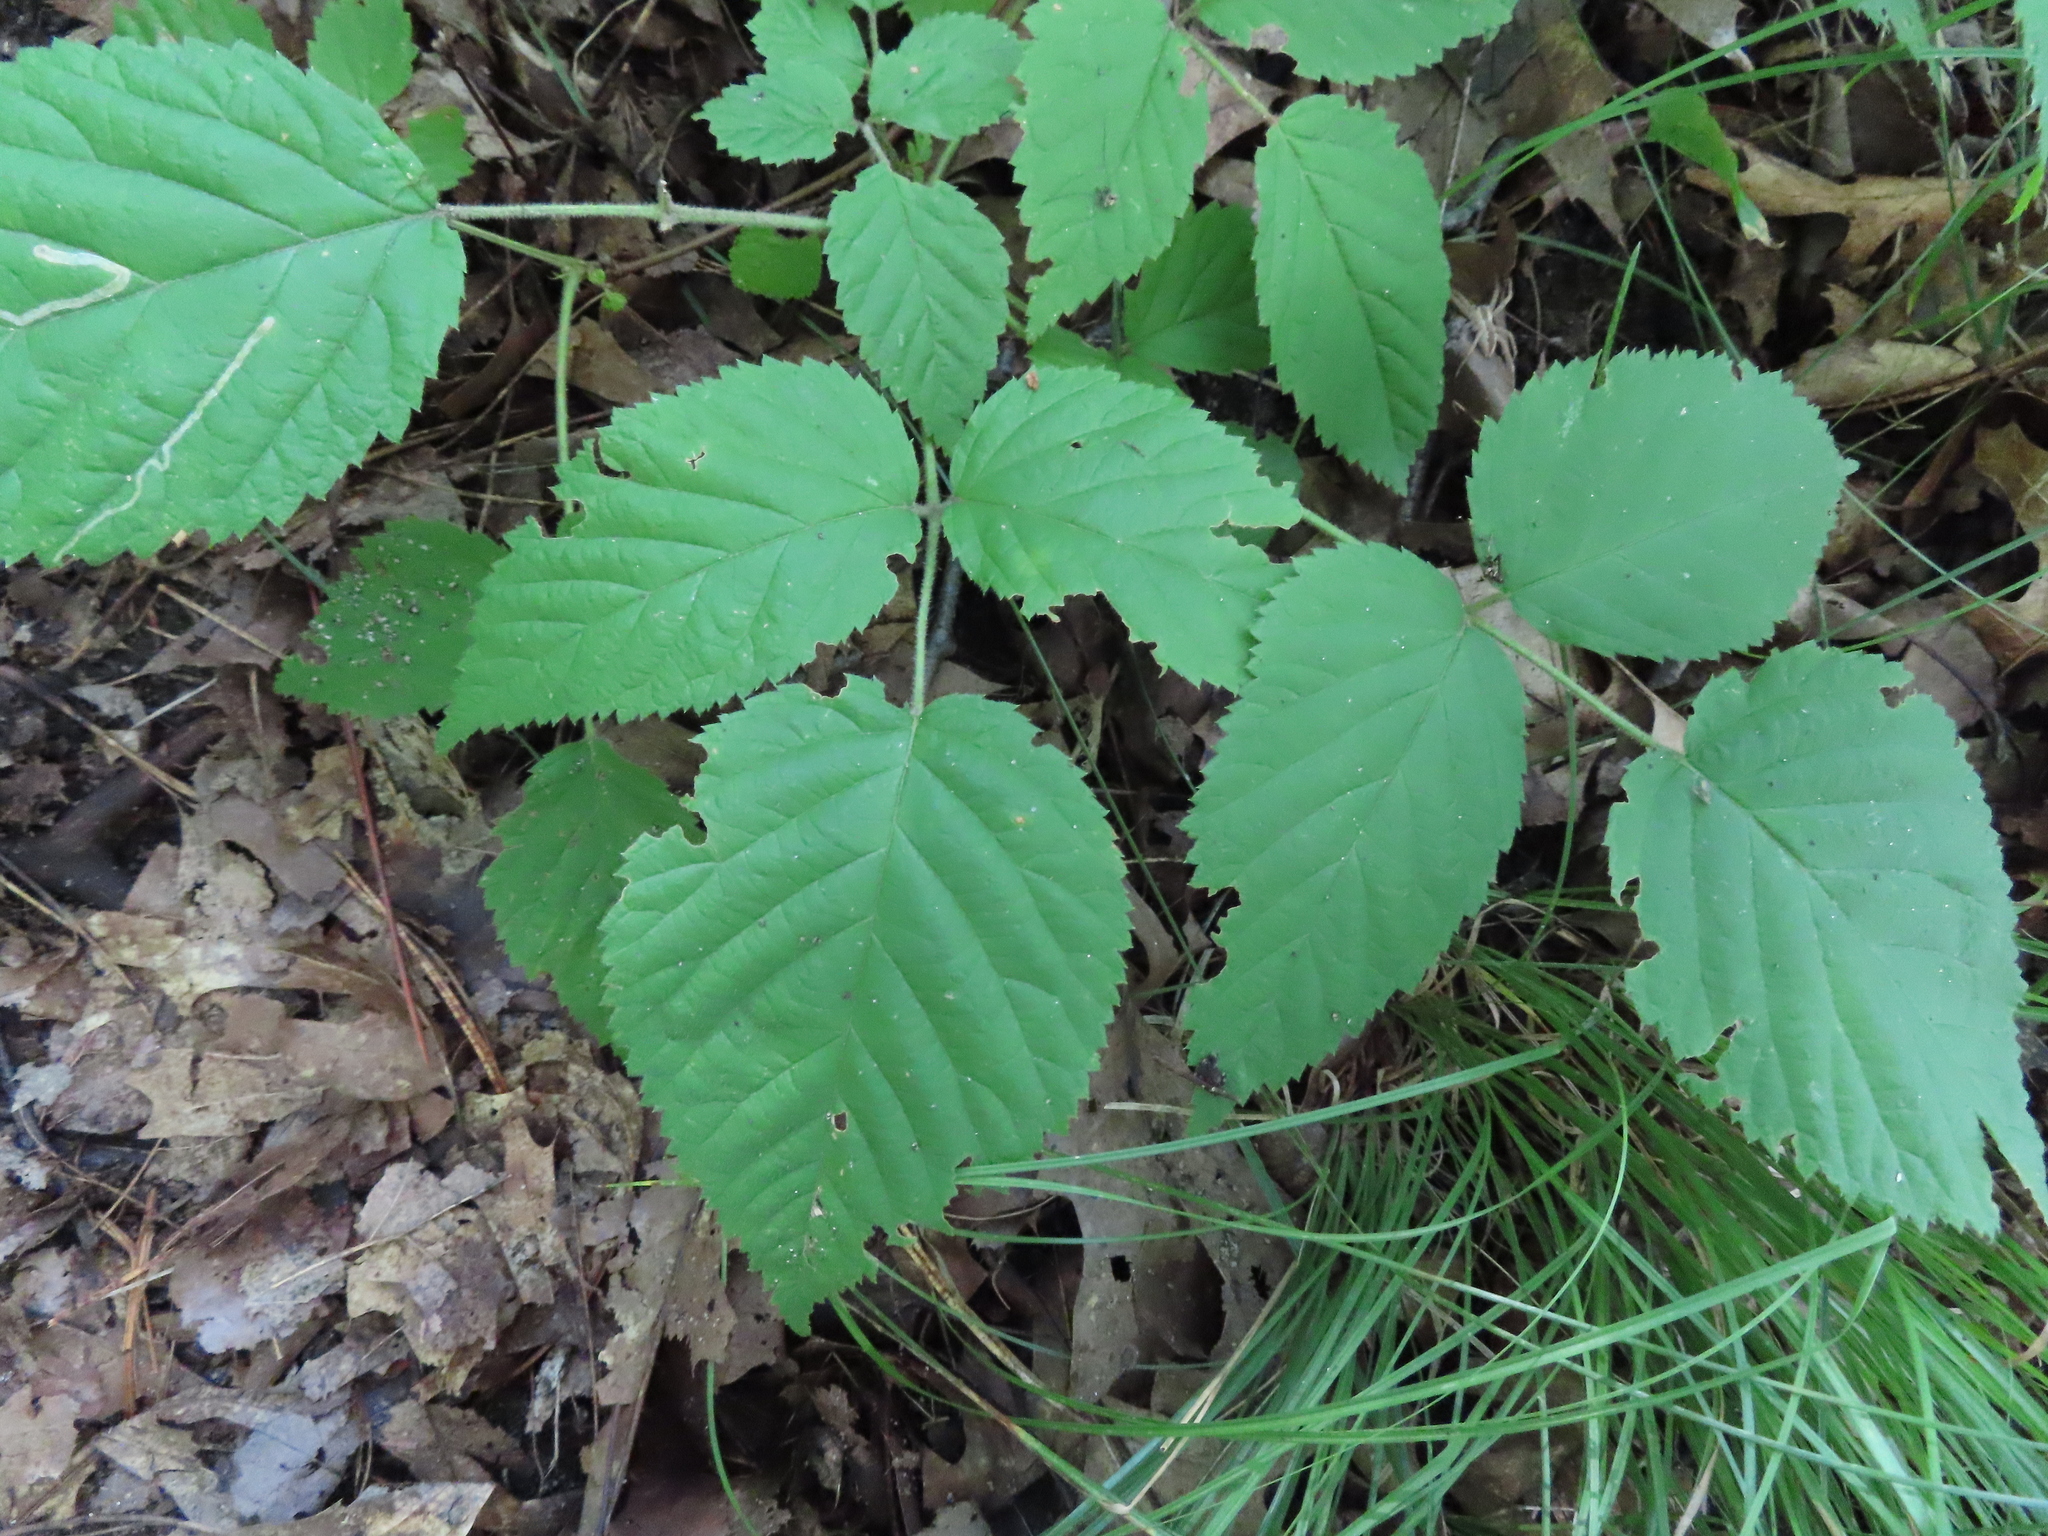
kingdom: Plantae
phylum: Tracheophyta
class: Magnoliopsida
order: Rosales
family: Rosaceae
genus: Rubus
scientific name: Rubus allegheniensis
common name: Allegheny blackberry
